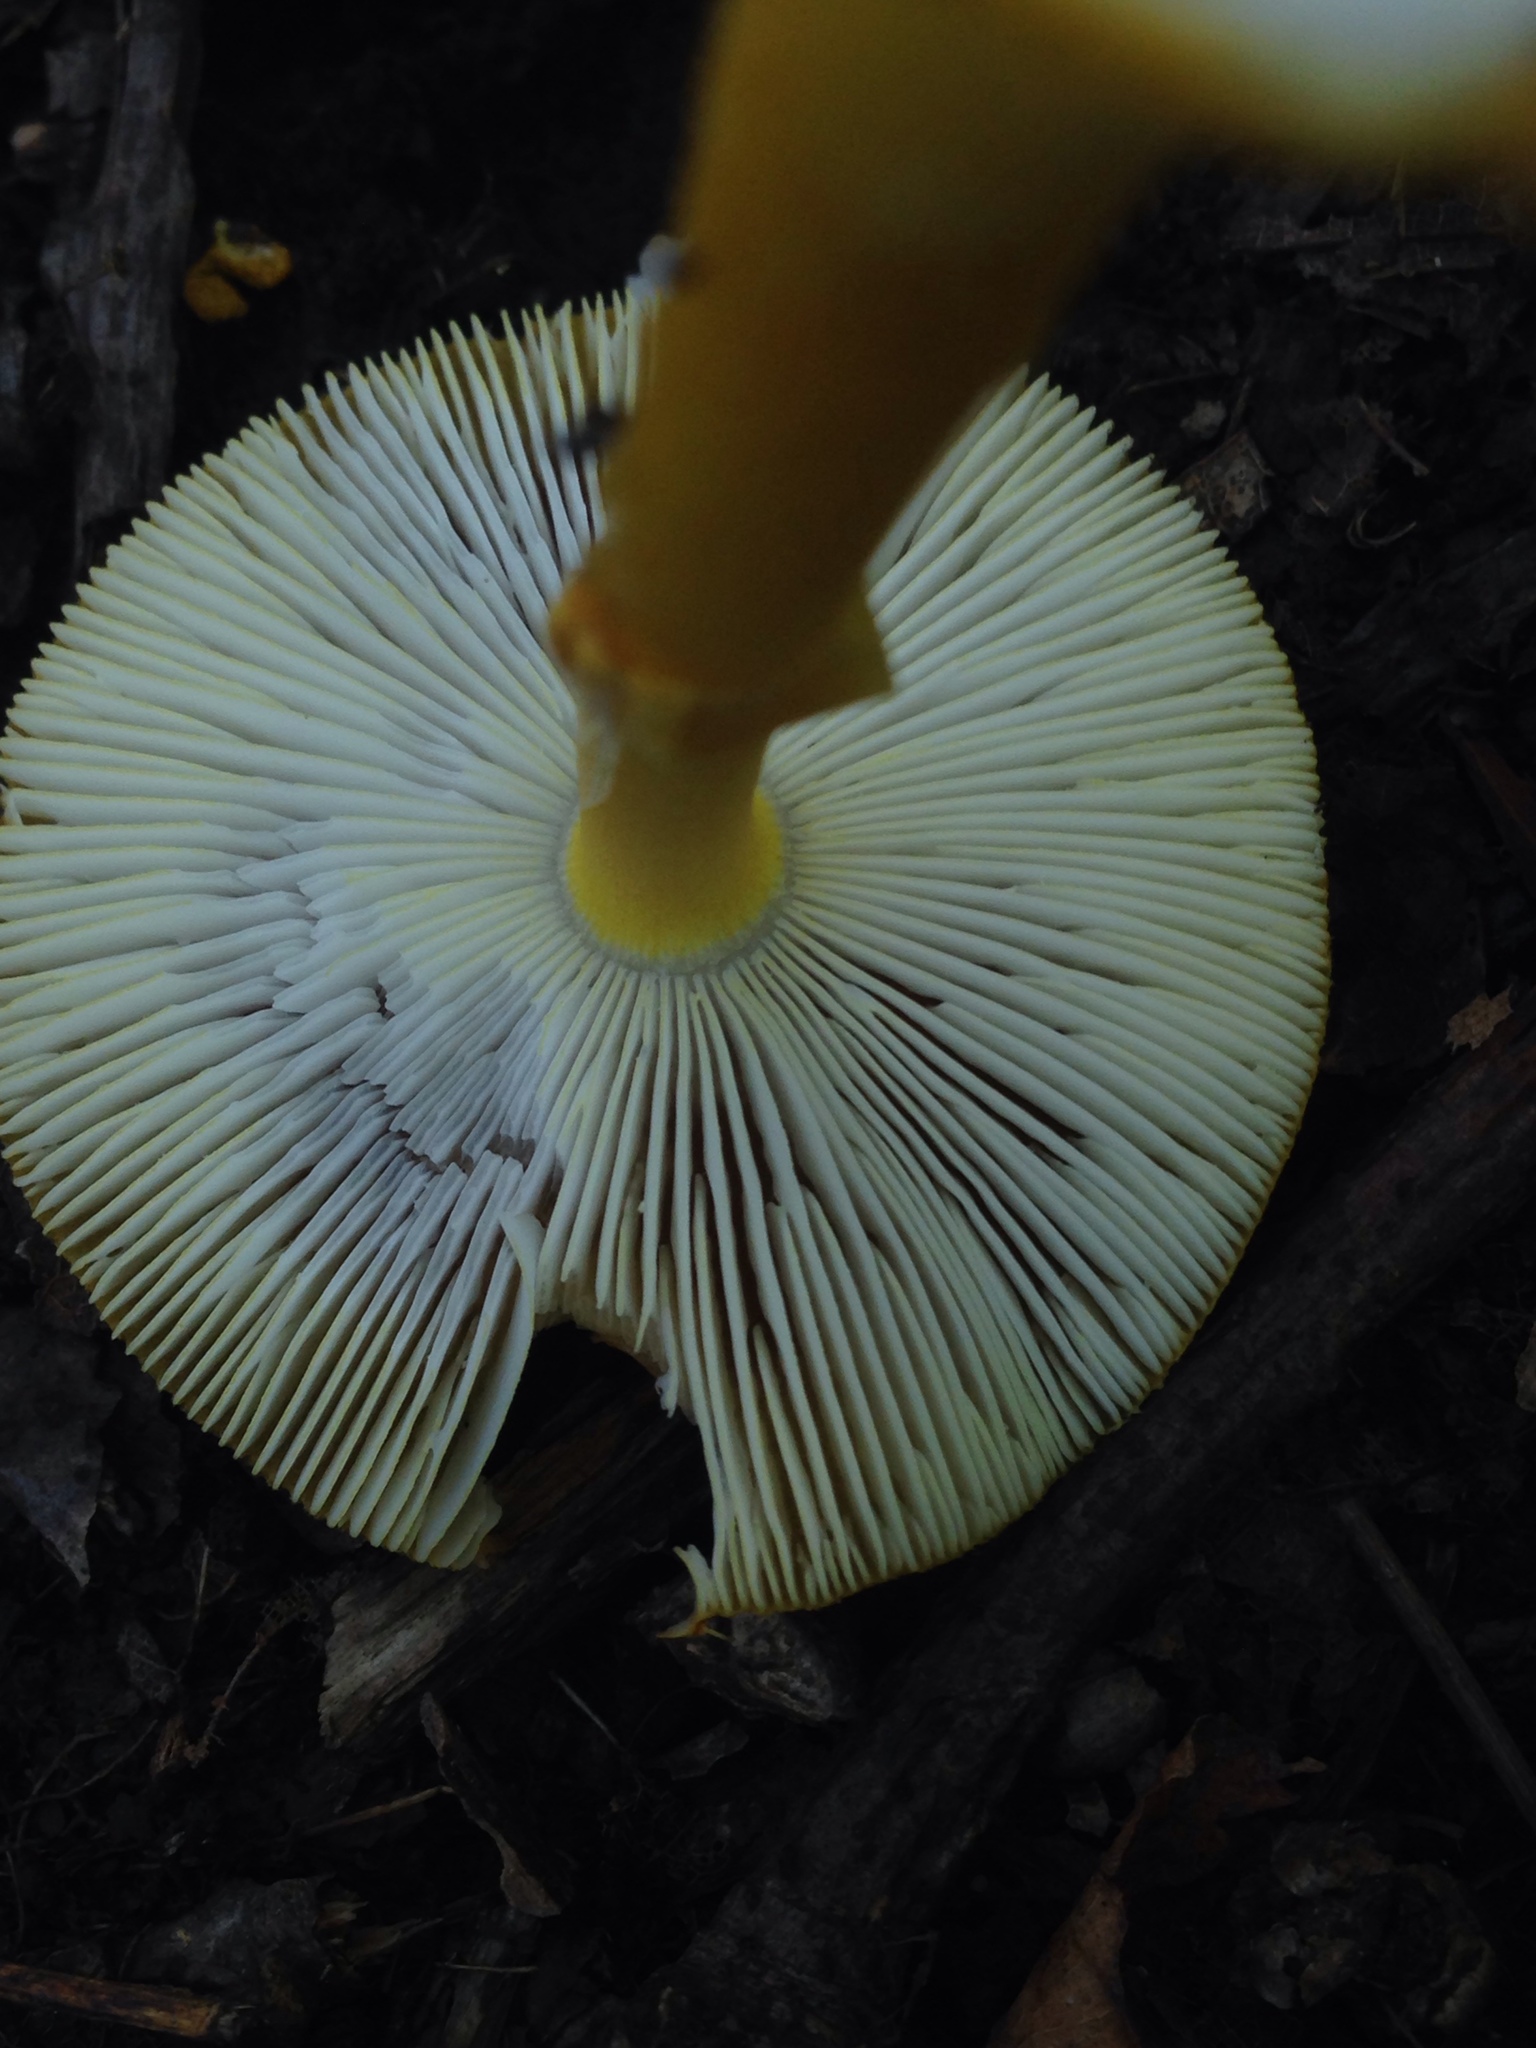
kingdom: Fungi
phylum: Basidiomycota
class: Agaricomycetes
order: Agaricales
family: Amanitaceae
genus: Amanita
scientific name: Amanita flavoconia
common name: Yellow patches
